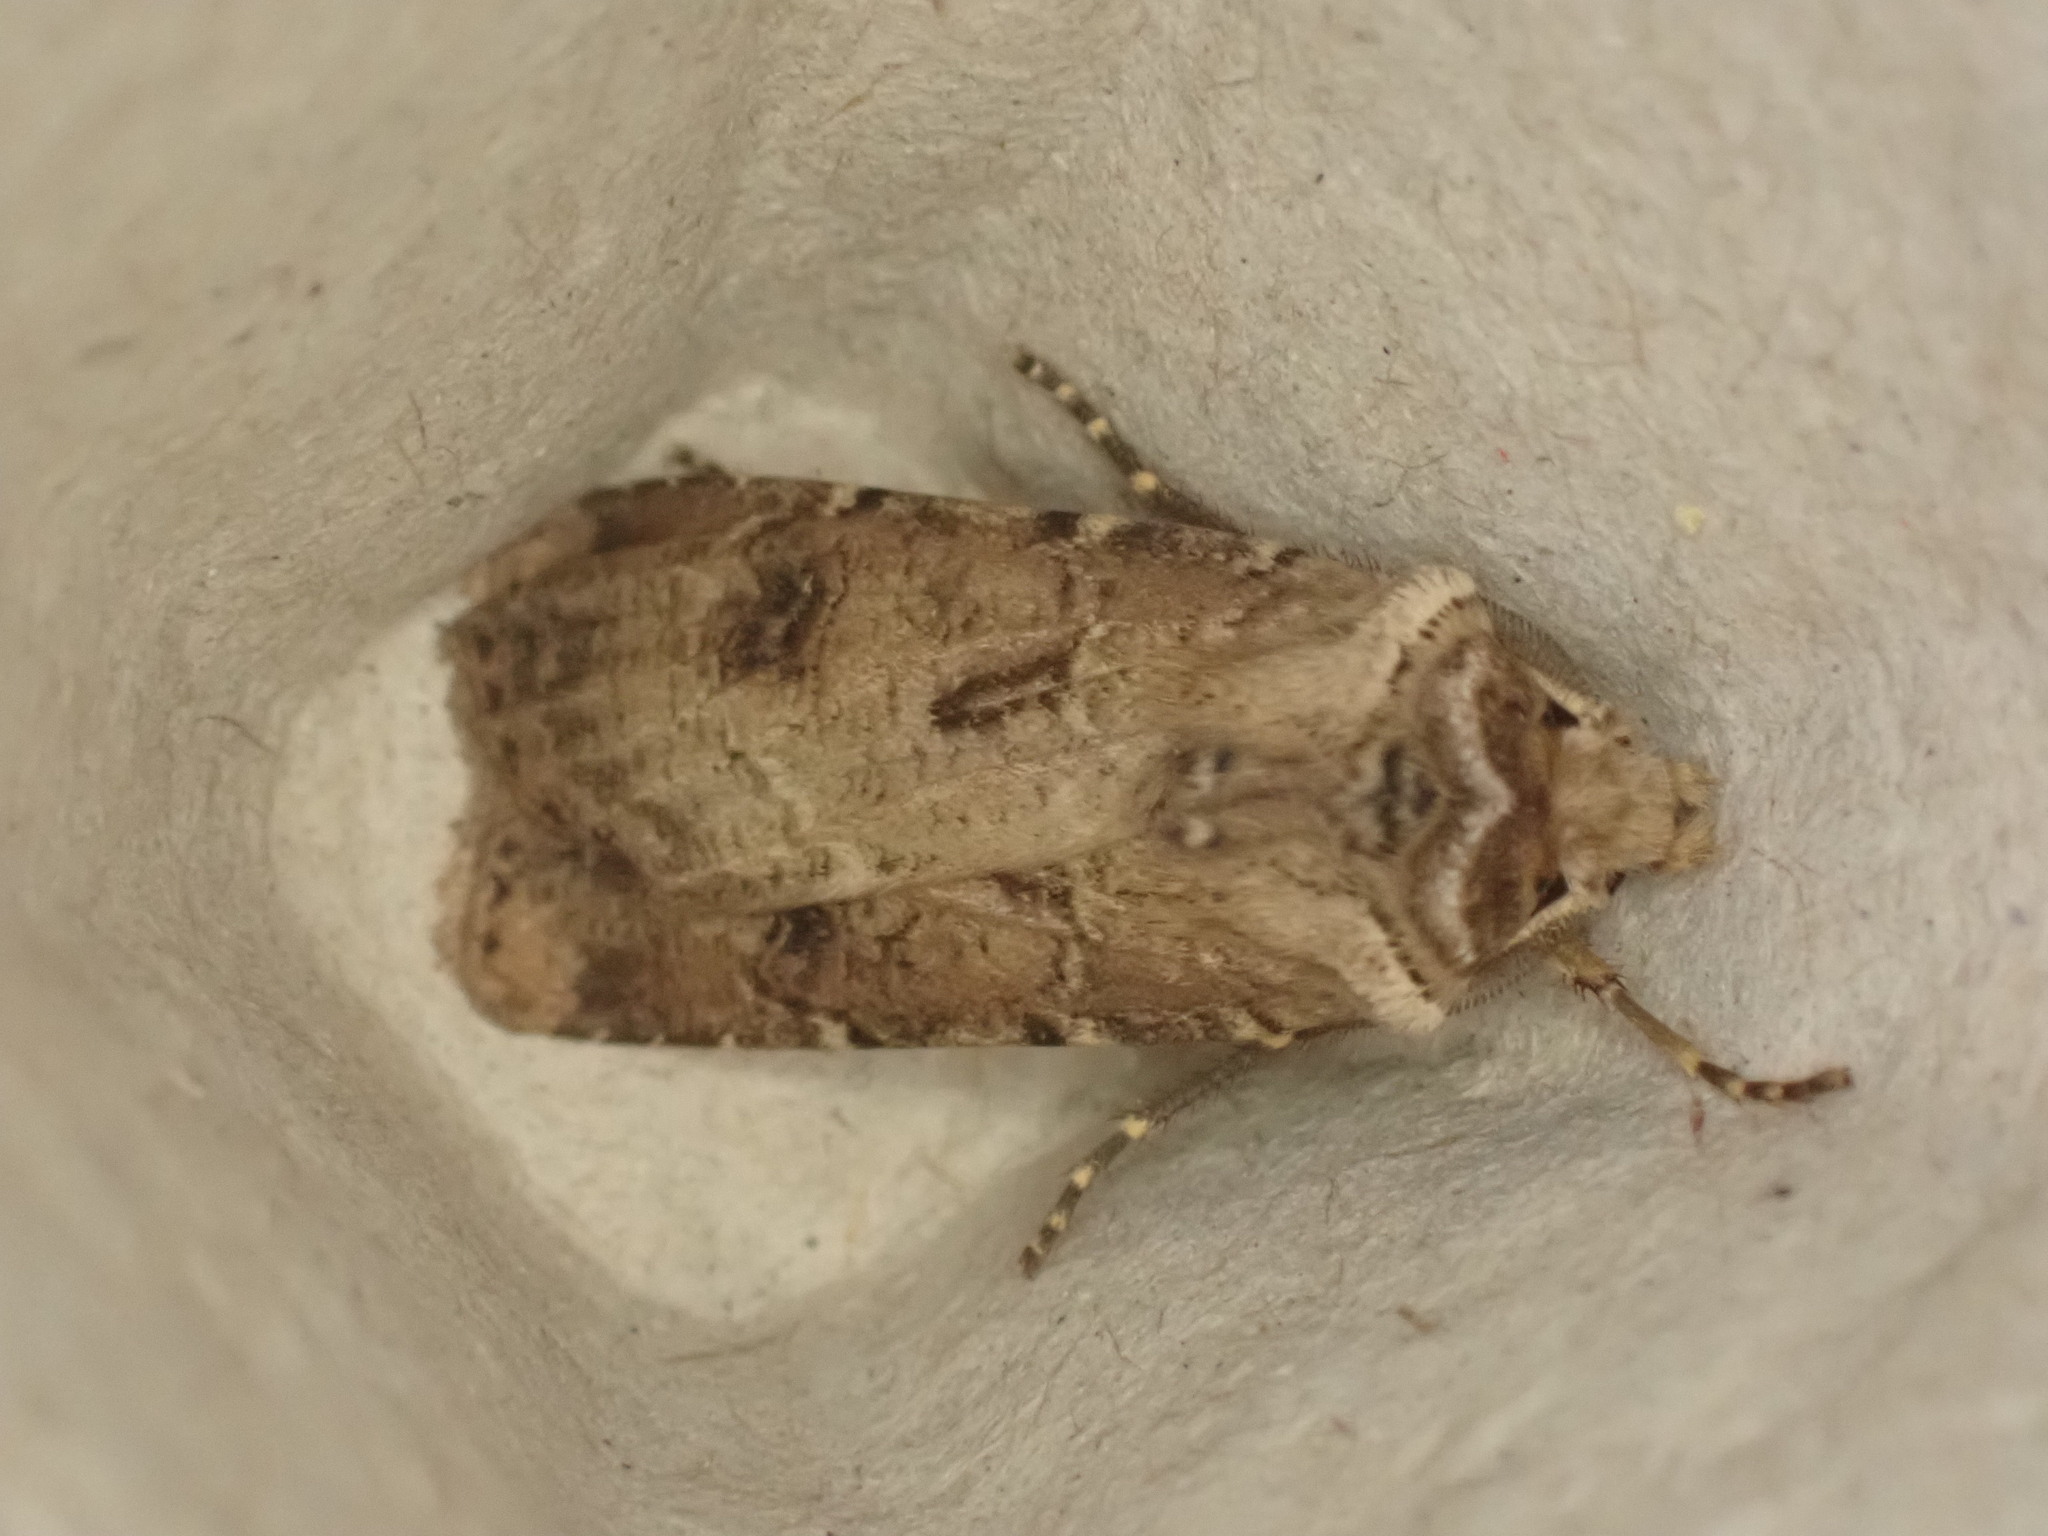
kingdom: Animalia
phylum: Arthropoda
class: Insecta
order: Lepidoptera
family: Noctuidae
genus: Agrotis
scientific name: Agrotis clavis
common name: Heart and club
